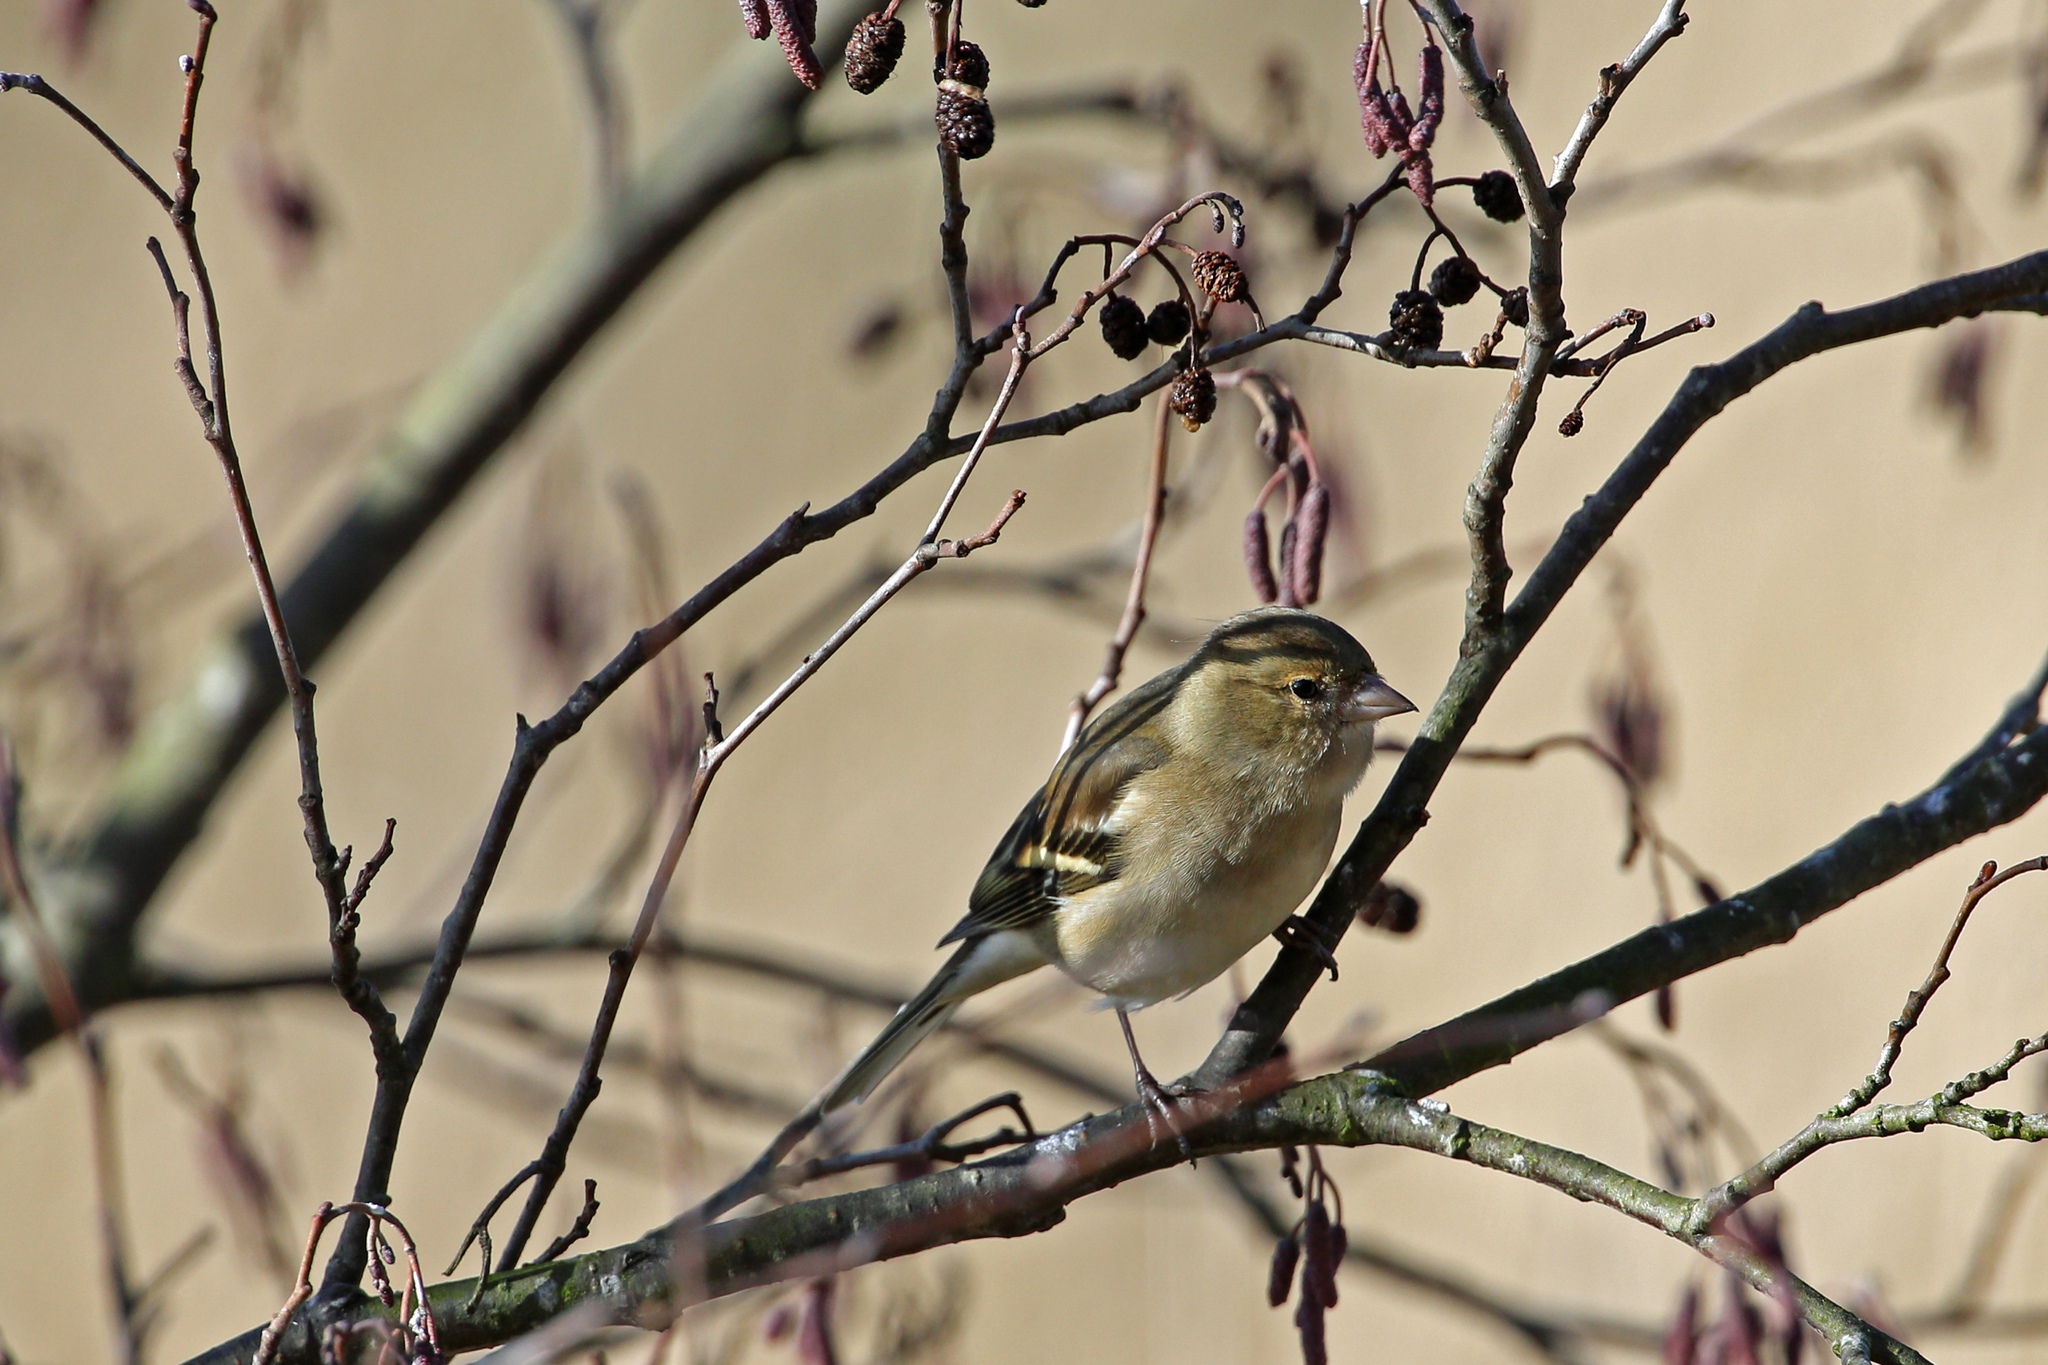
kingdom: Animalia
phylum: Chordata
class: Aves
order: Passeriformes
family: Fringillidae
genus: Fringilla
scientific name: Fringilla coelebs
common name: Common chaffinch
